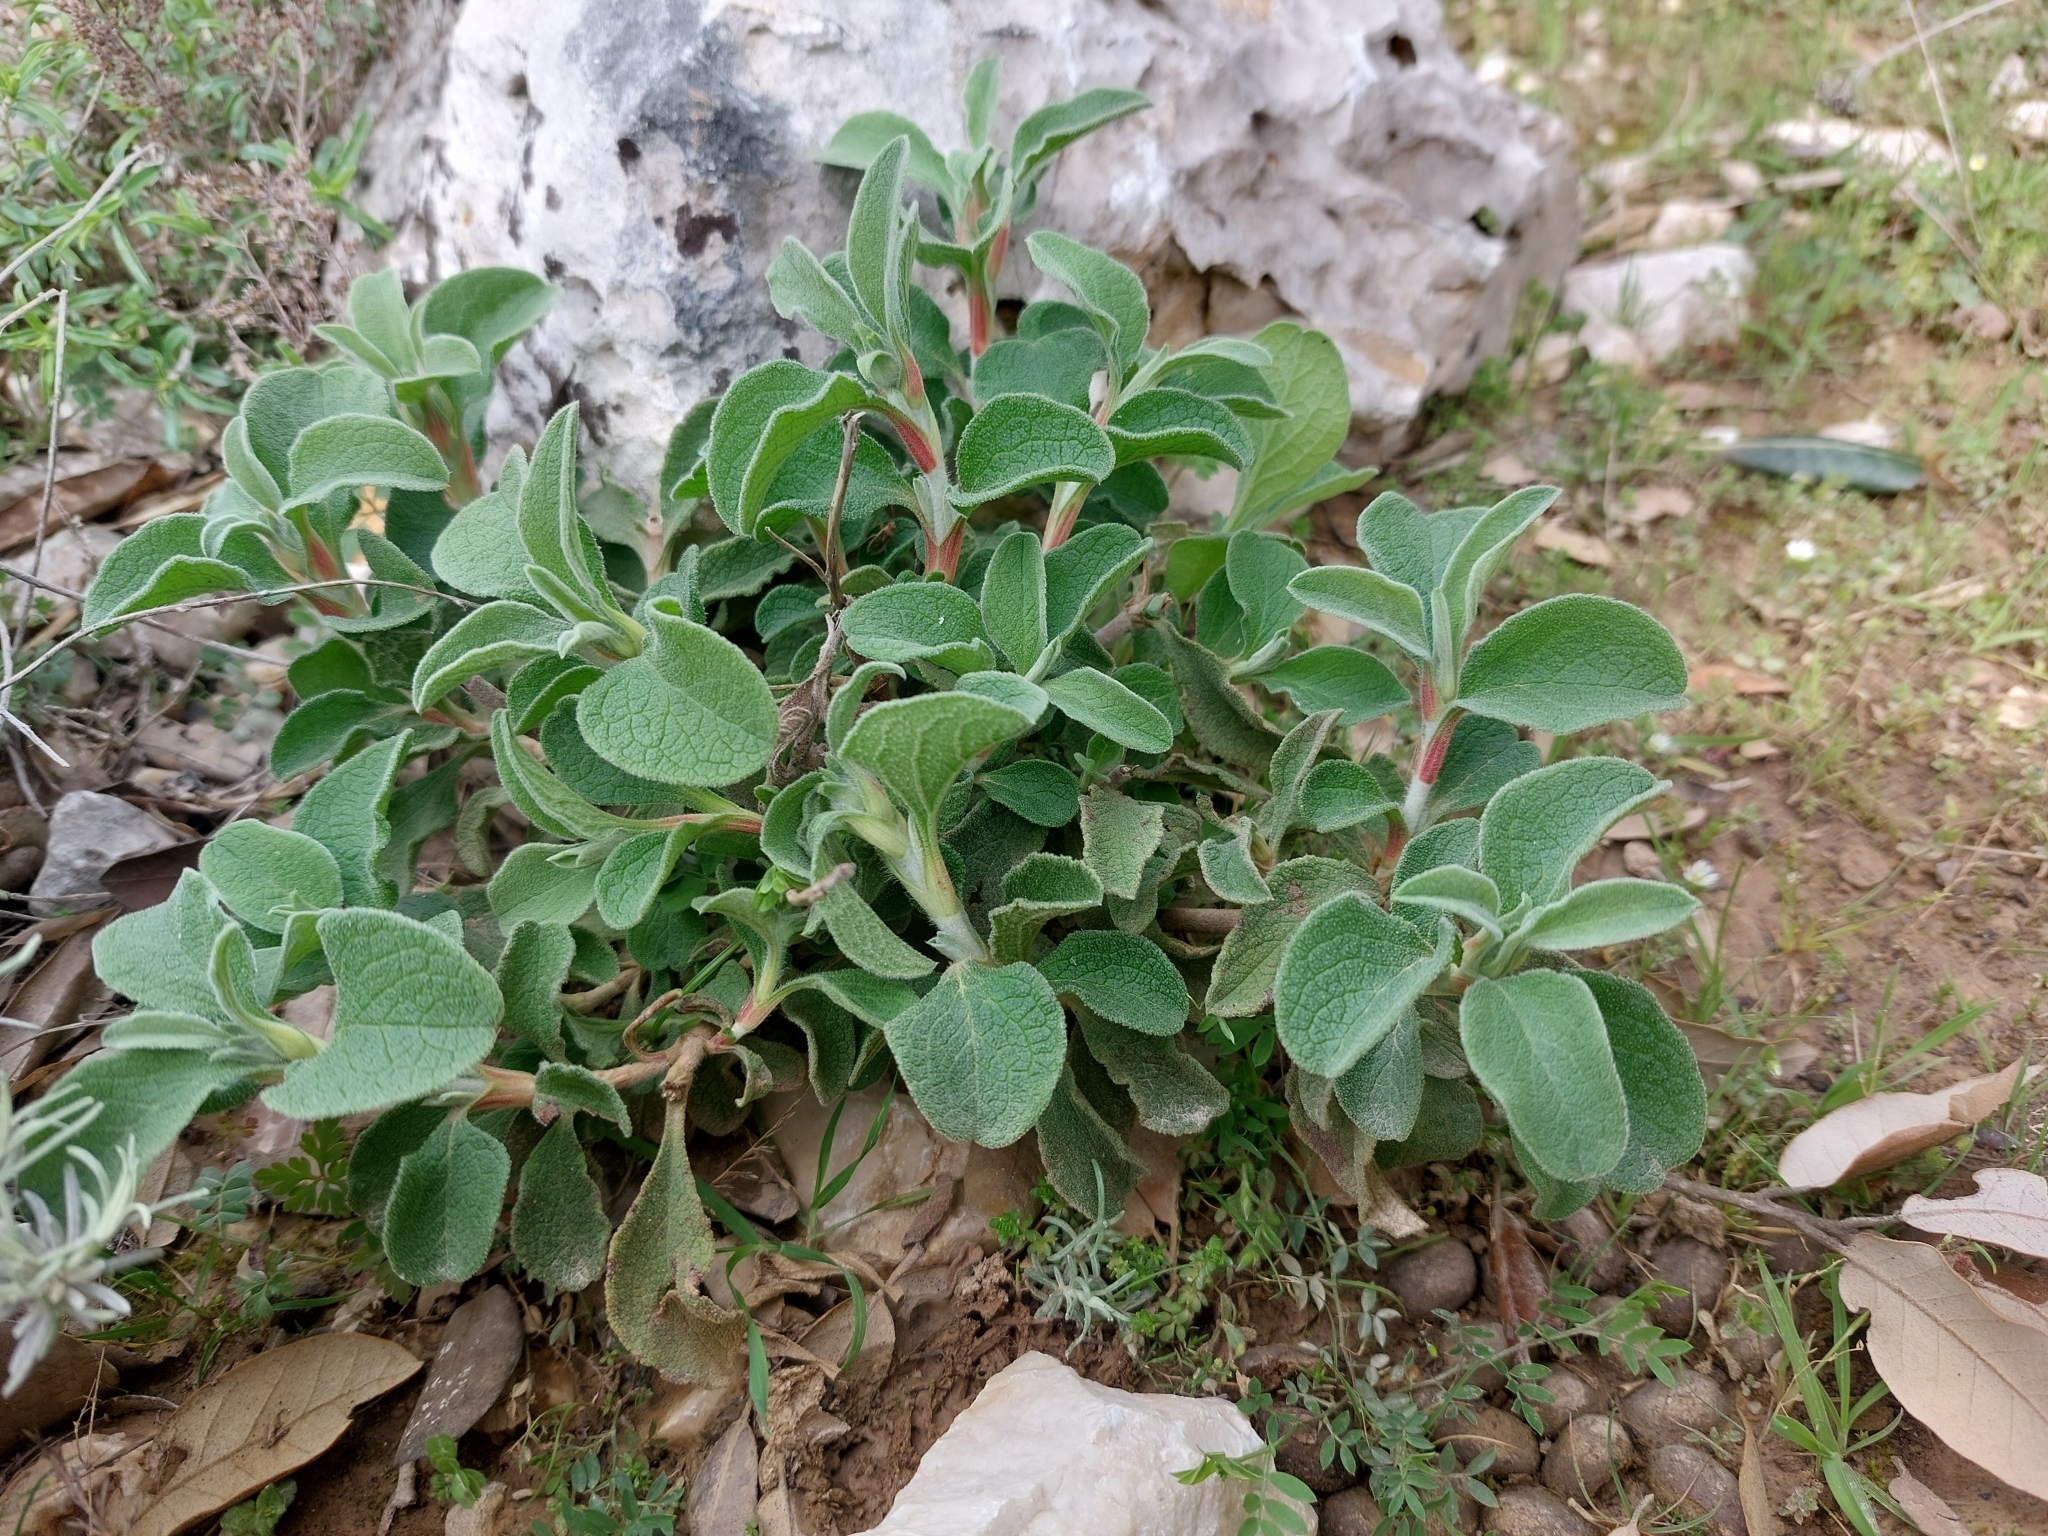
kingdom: Plantae
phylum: Tracheophyta
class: Magnoliopsida
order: Malvales
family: Cistaceae
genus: Cistus
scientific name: Cistus creticus
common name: Cretan rockrose
